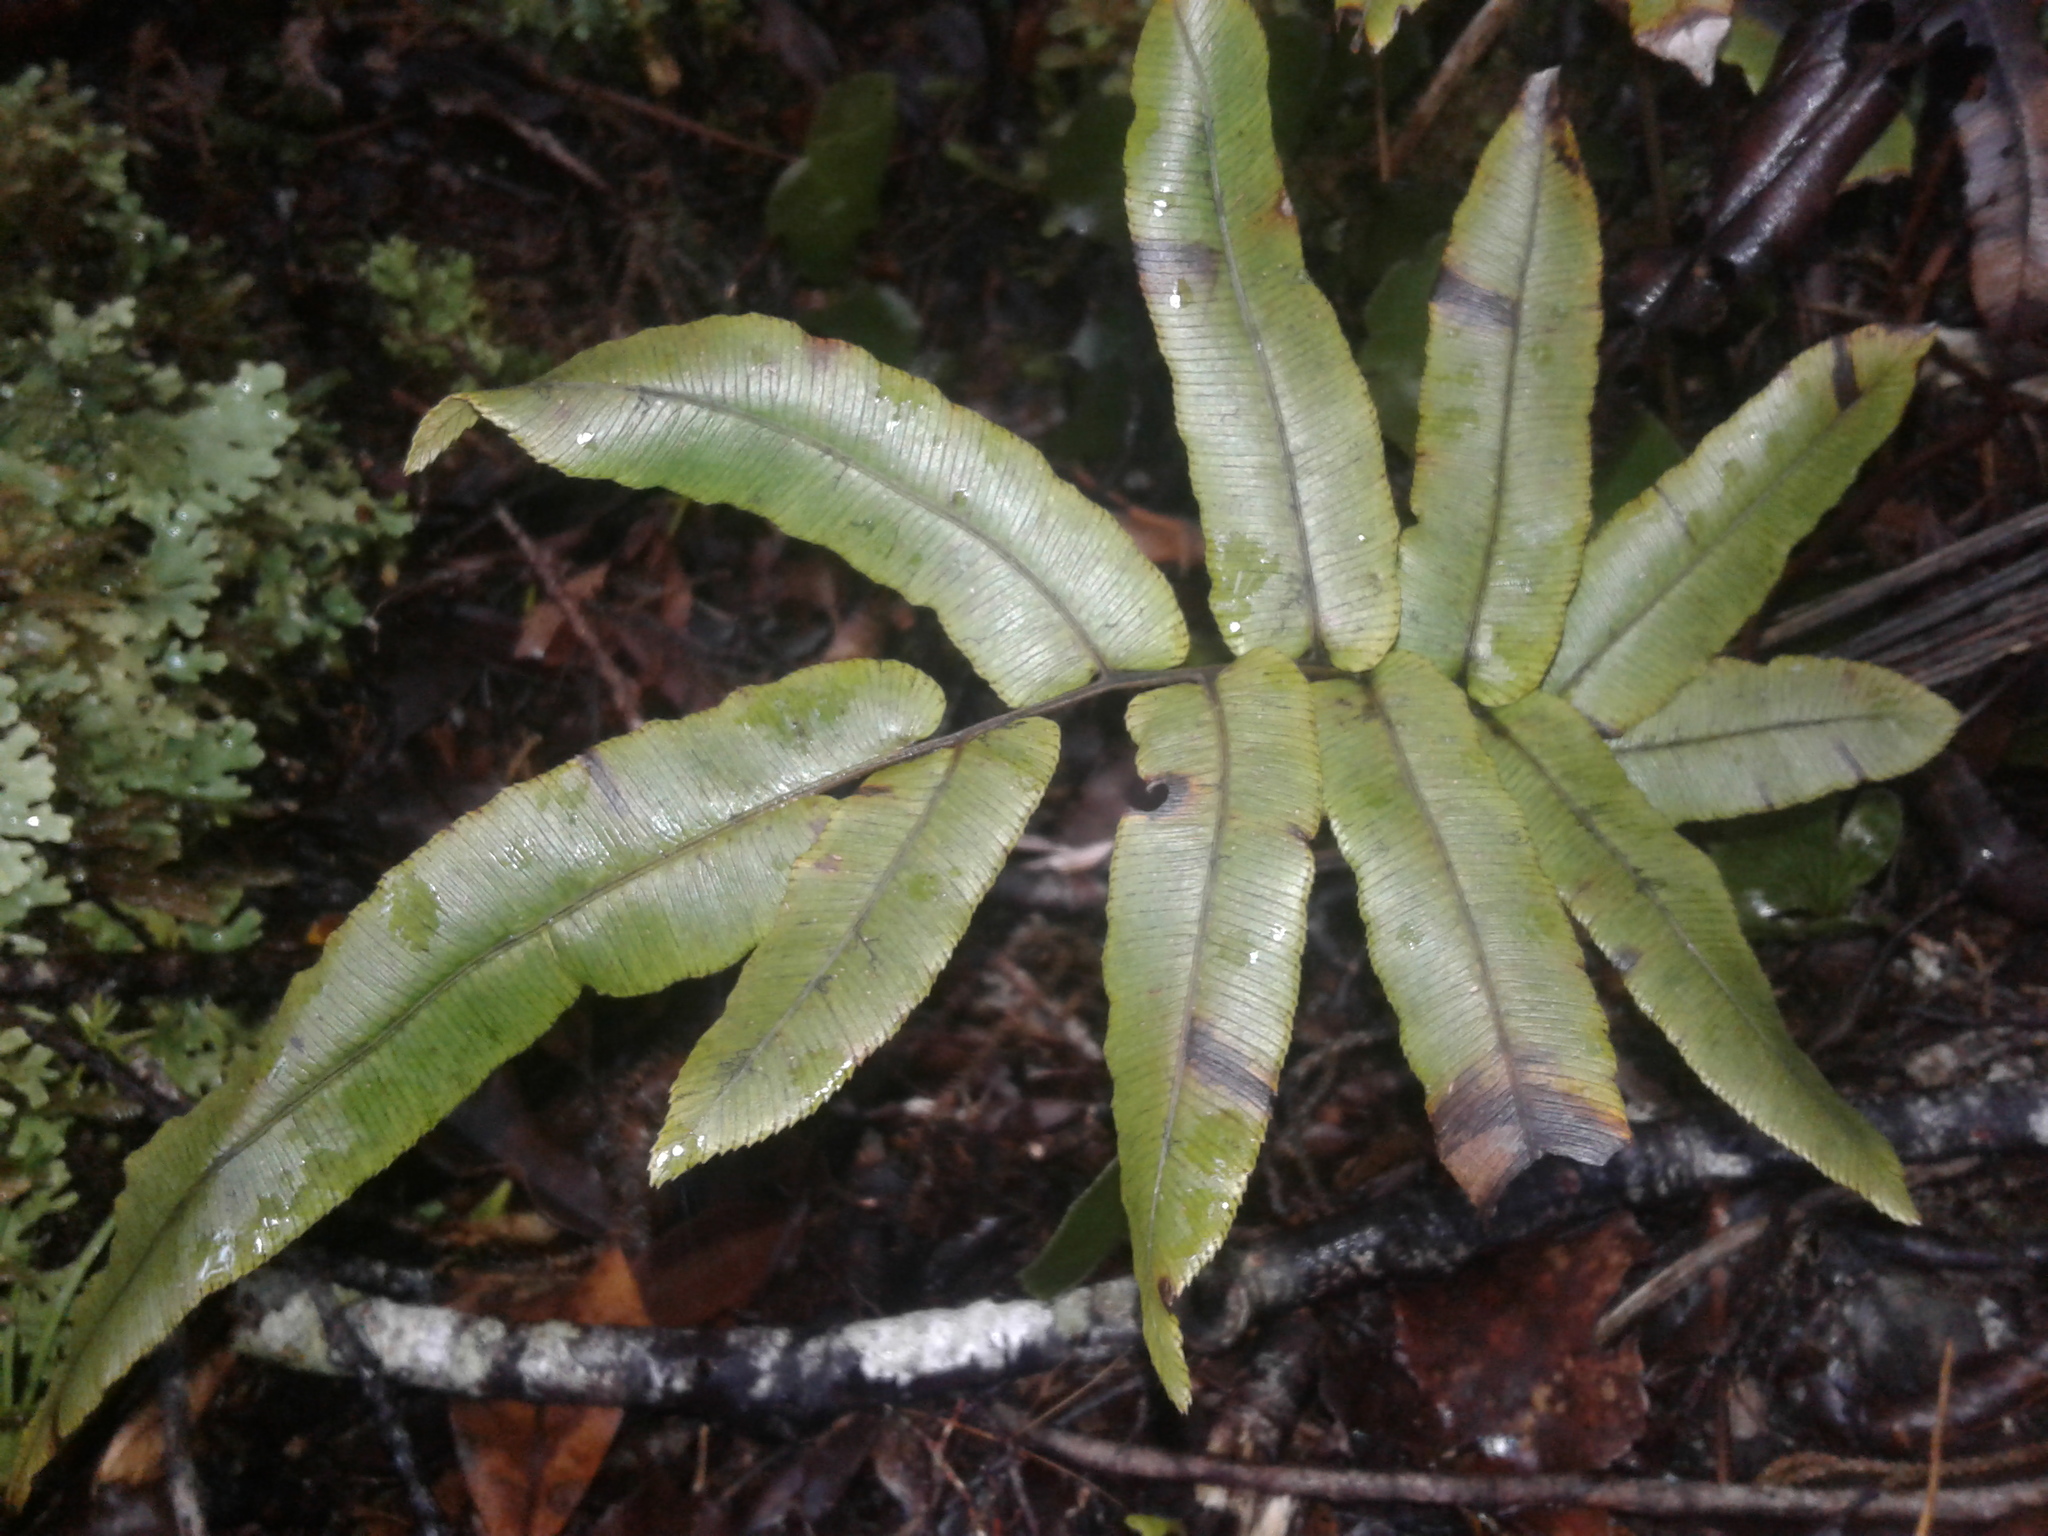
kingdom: Plantae
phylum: Tracheophyta
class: Polypodiopsida
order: Polypodiales
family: Blechnaceae
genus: Parablechnum
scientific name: Parablechnum procerum
